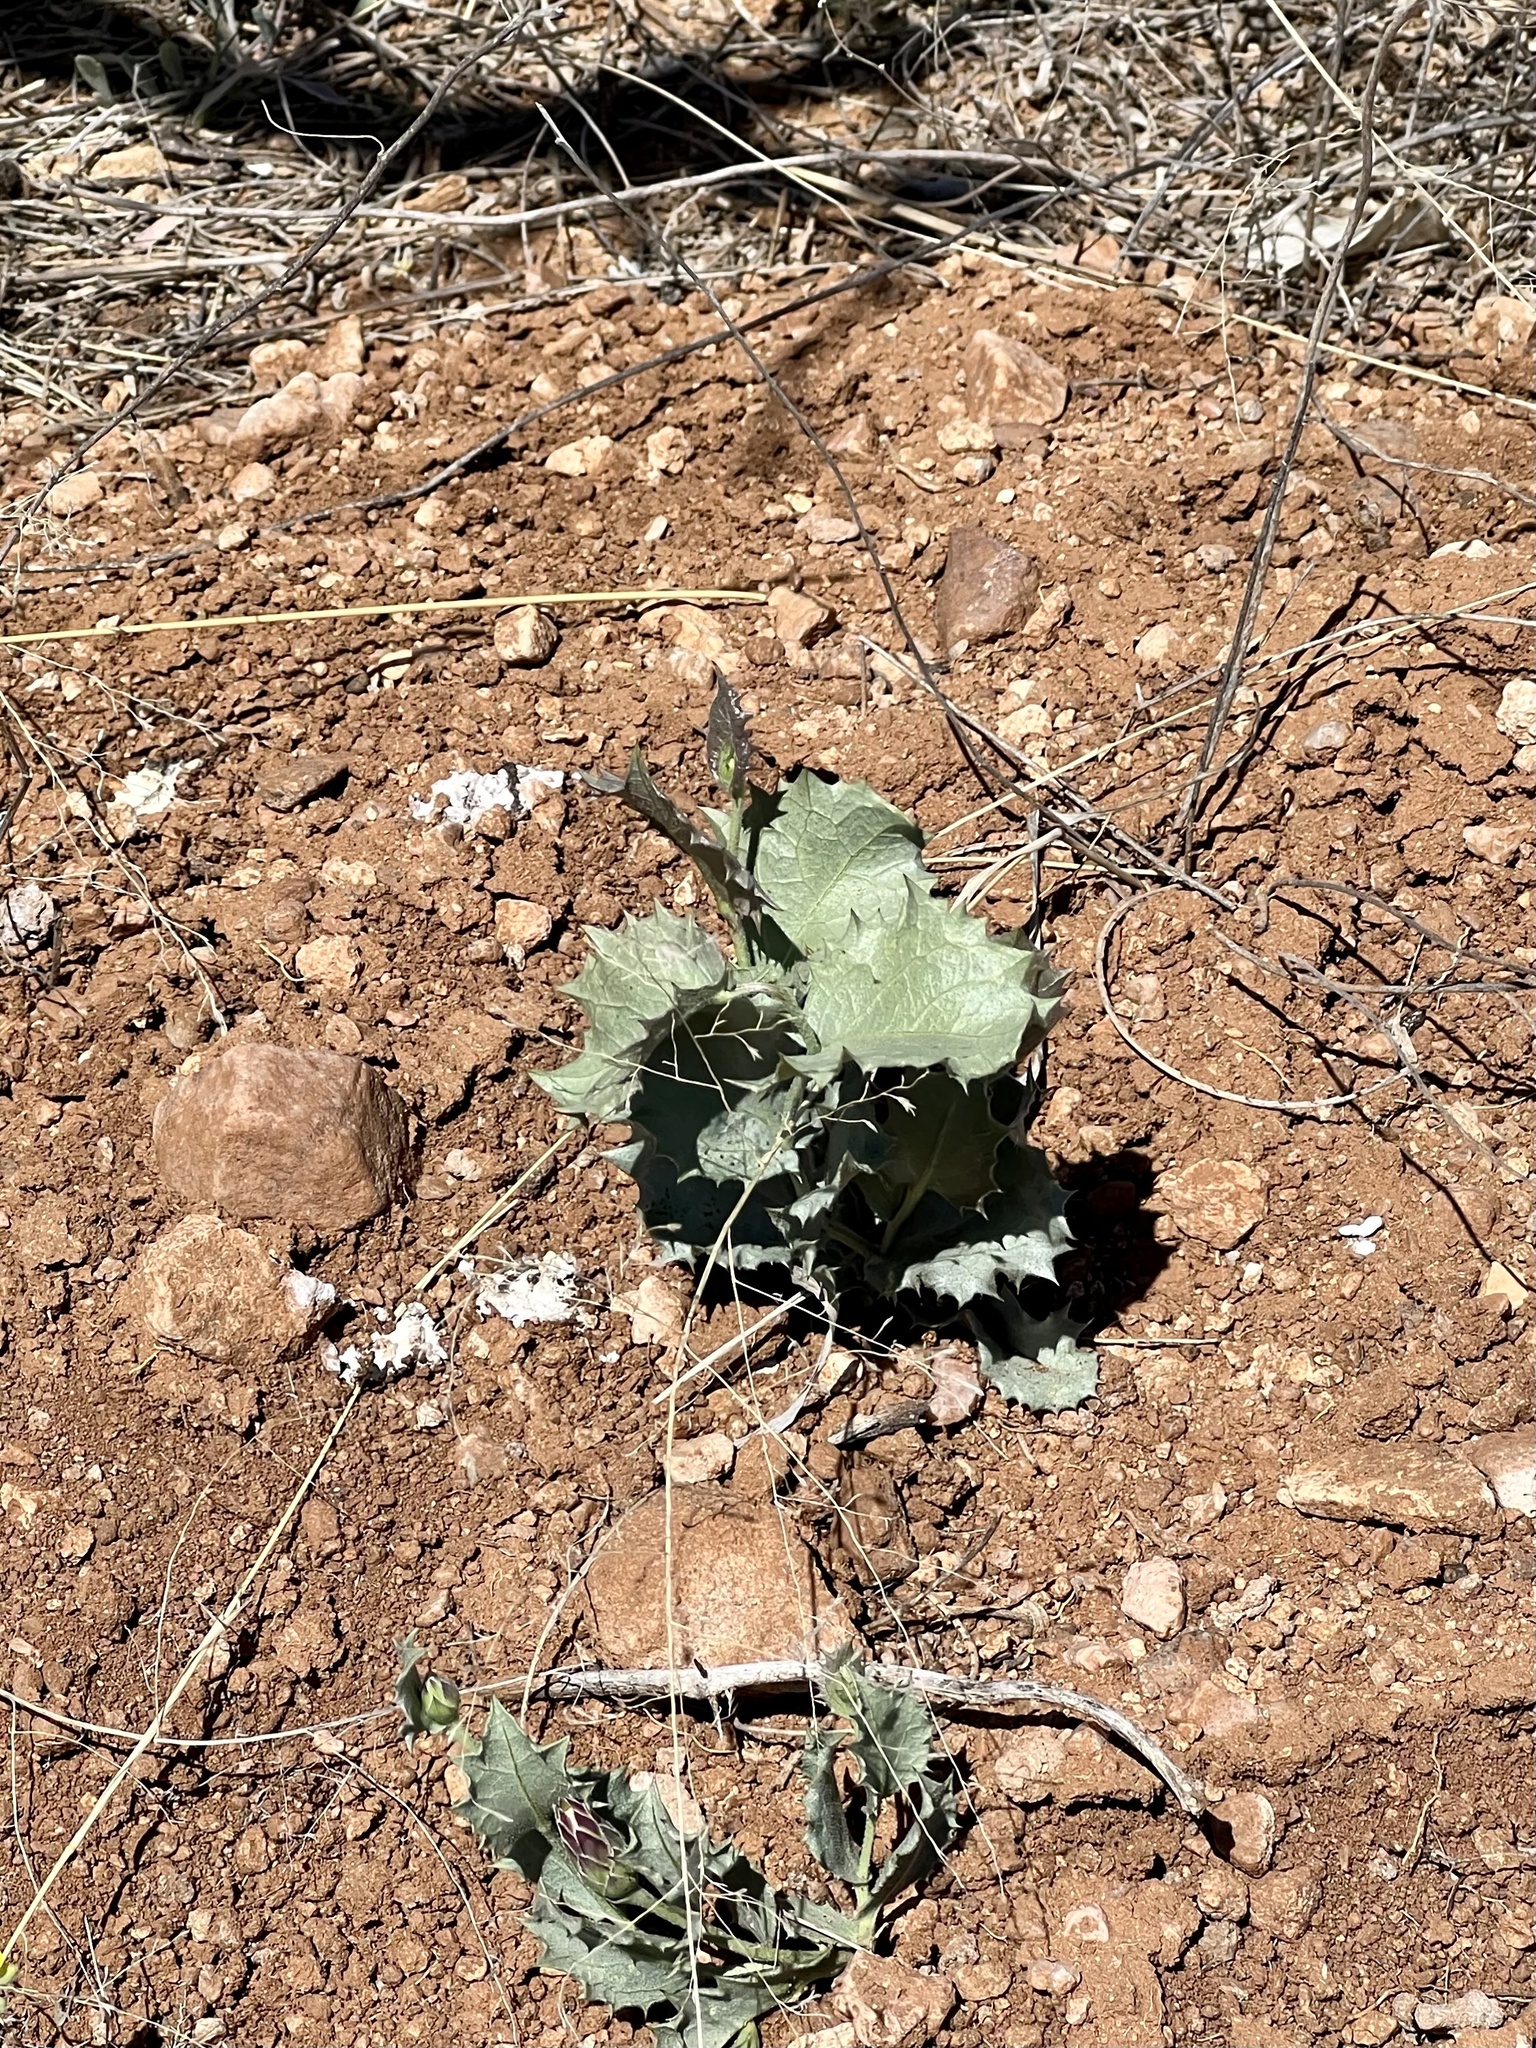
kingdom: Plantae
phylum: Tracheophyta
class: Magnoliopsida
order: Asterales
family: Asteraceae
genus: Acourtia
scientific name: Acourtia nana
